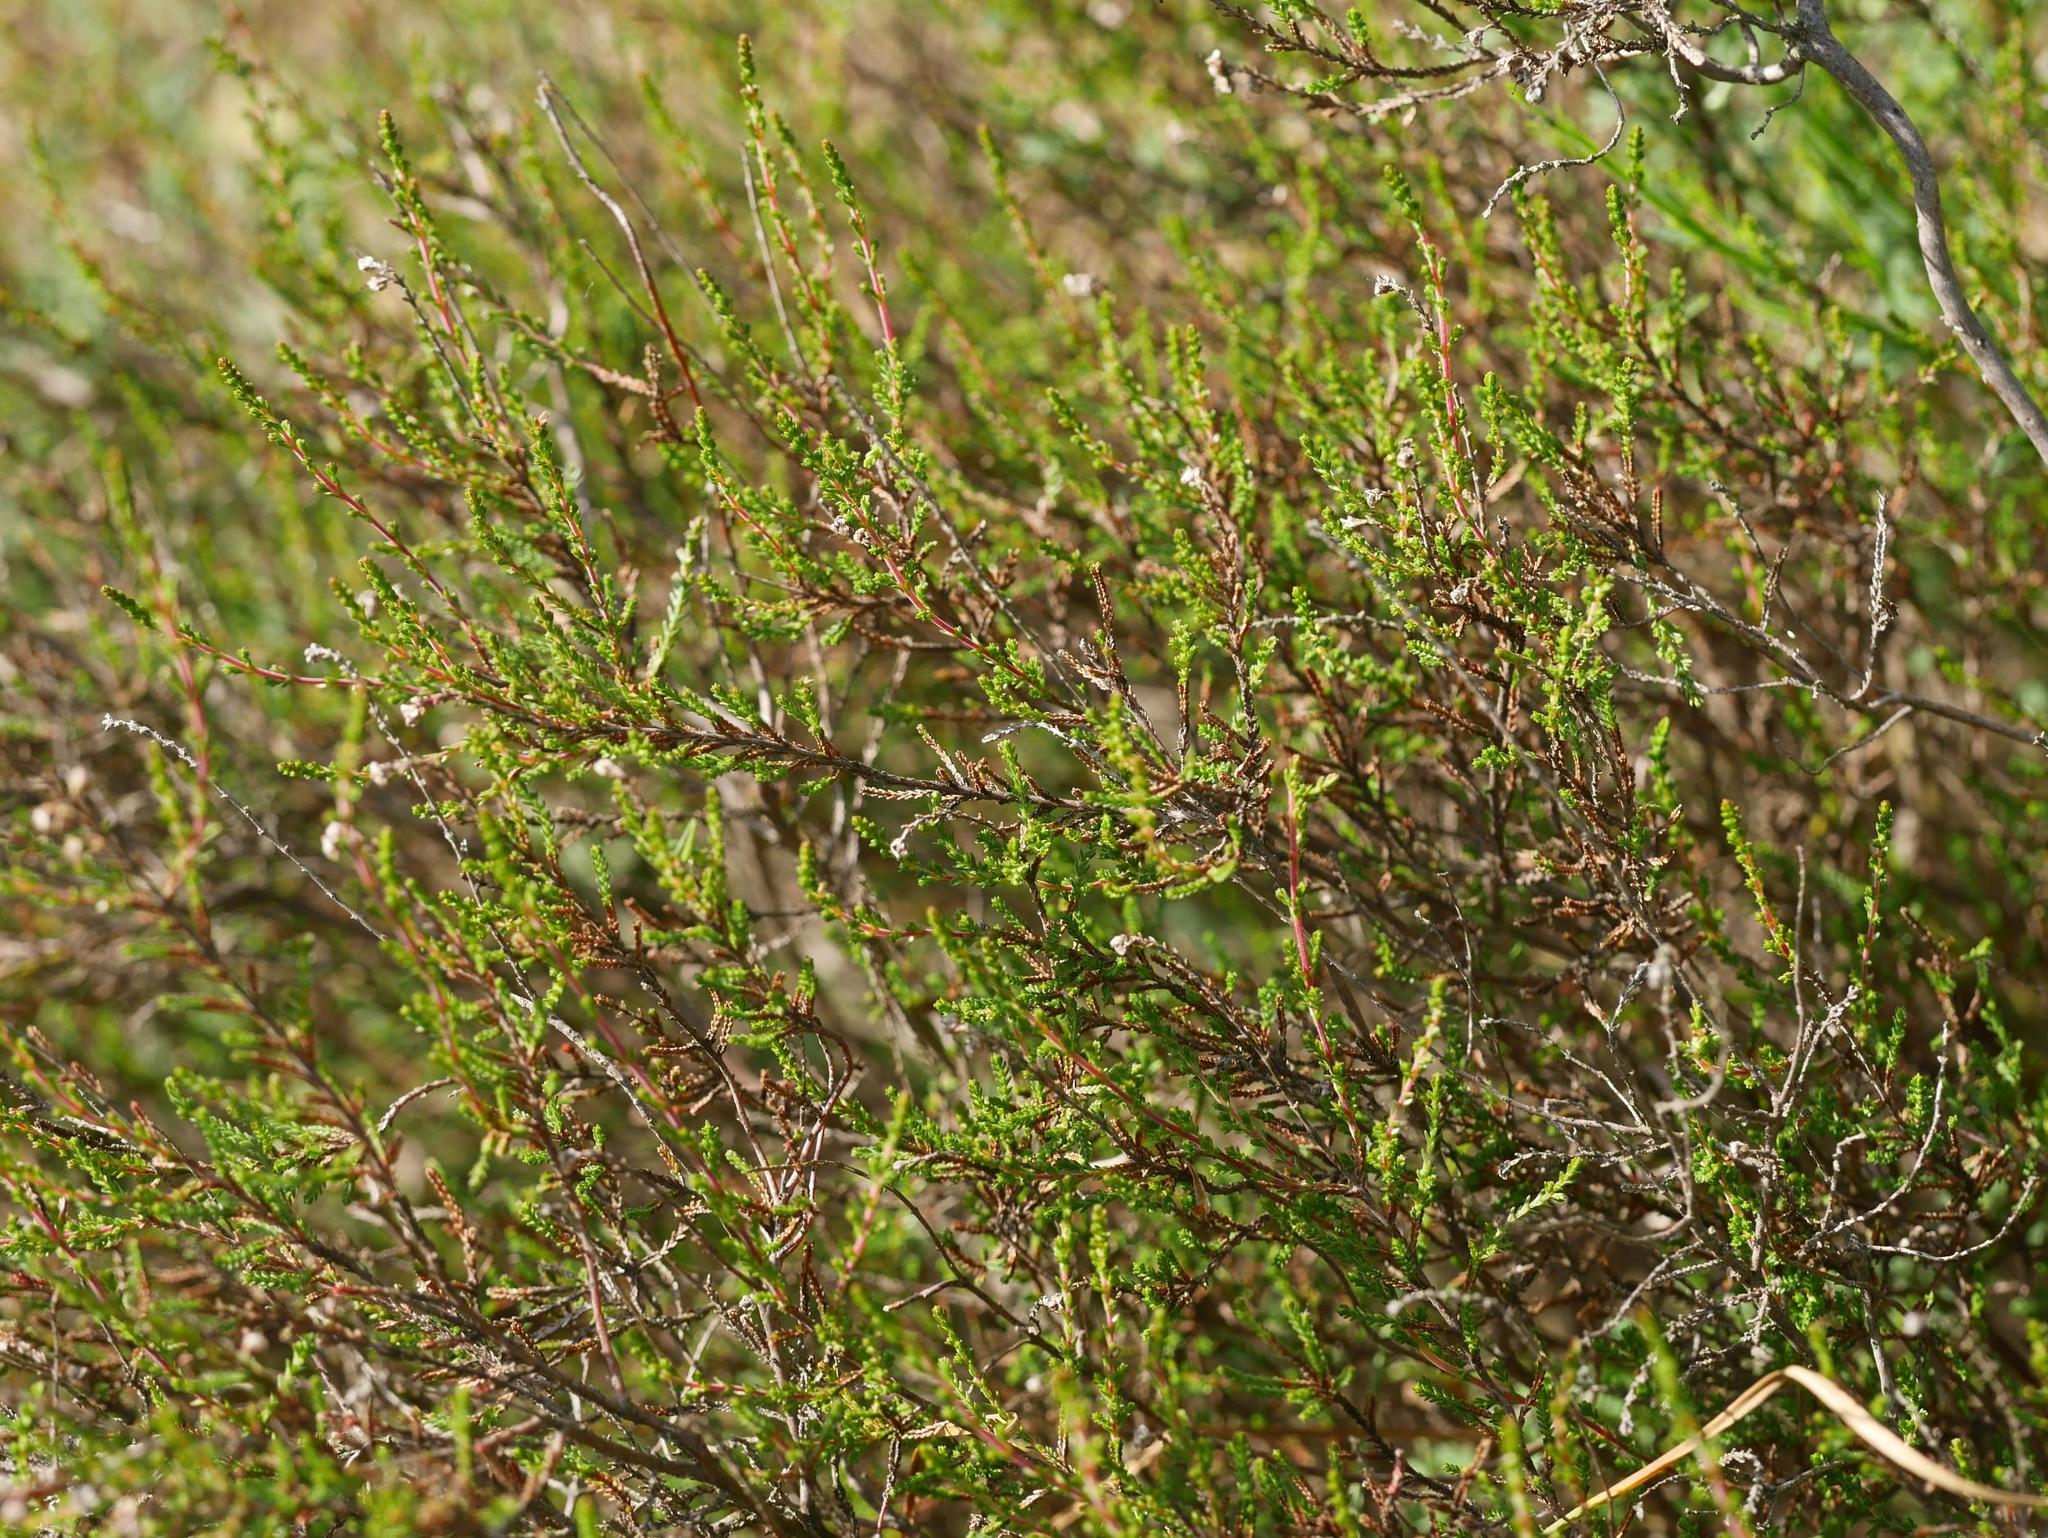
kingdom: Plantae
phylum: Tracheophyta
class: Magnoliopsida
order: Ericales
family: Ericaceae
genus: Calluna
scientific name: Calluna vulgaris
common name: Heather
